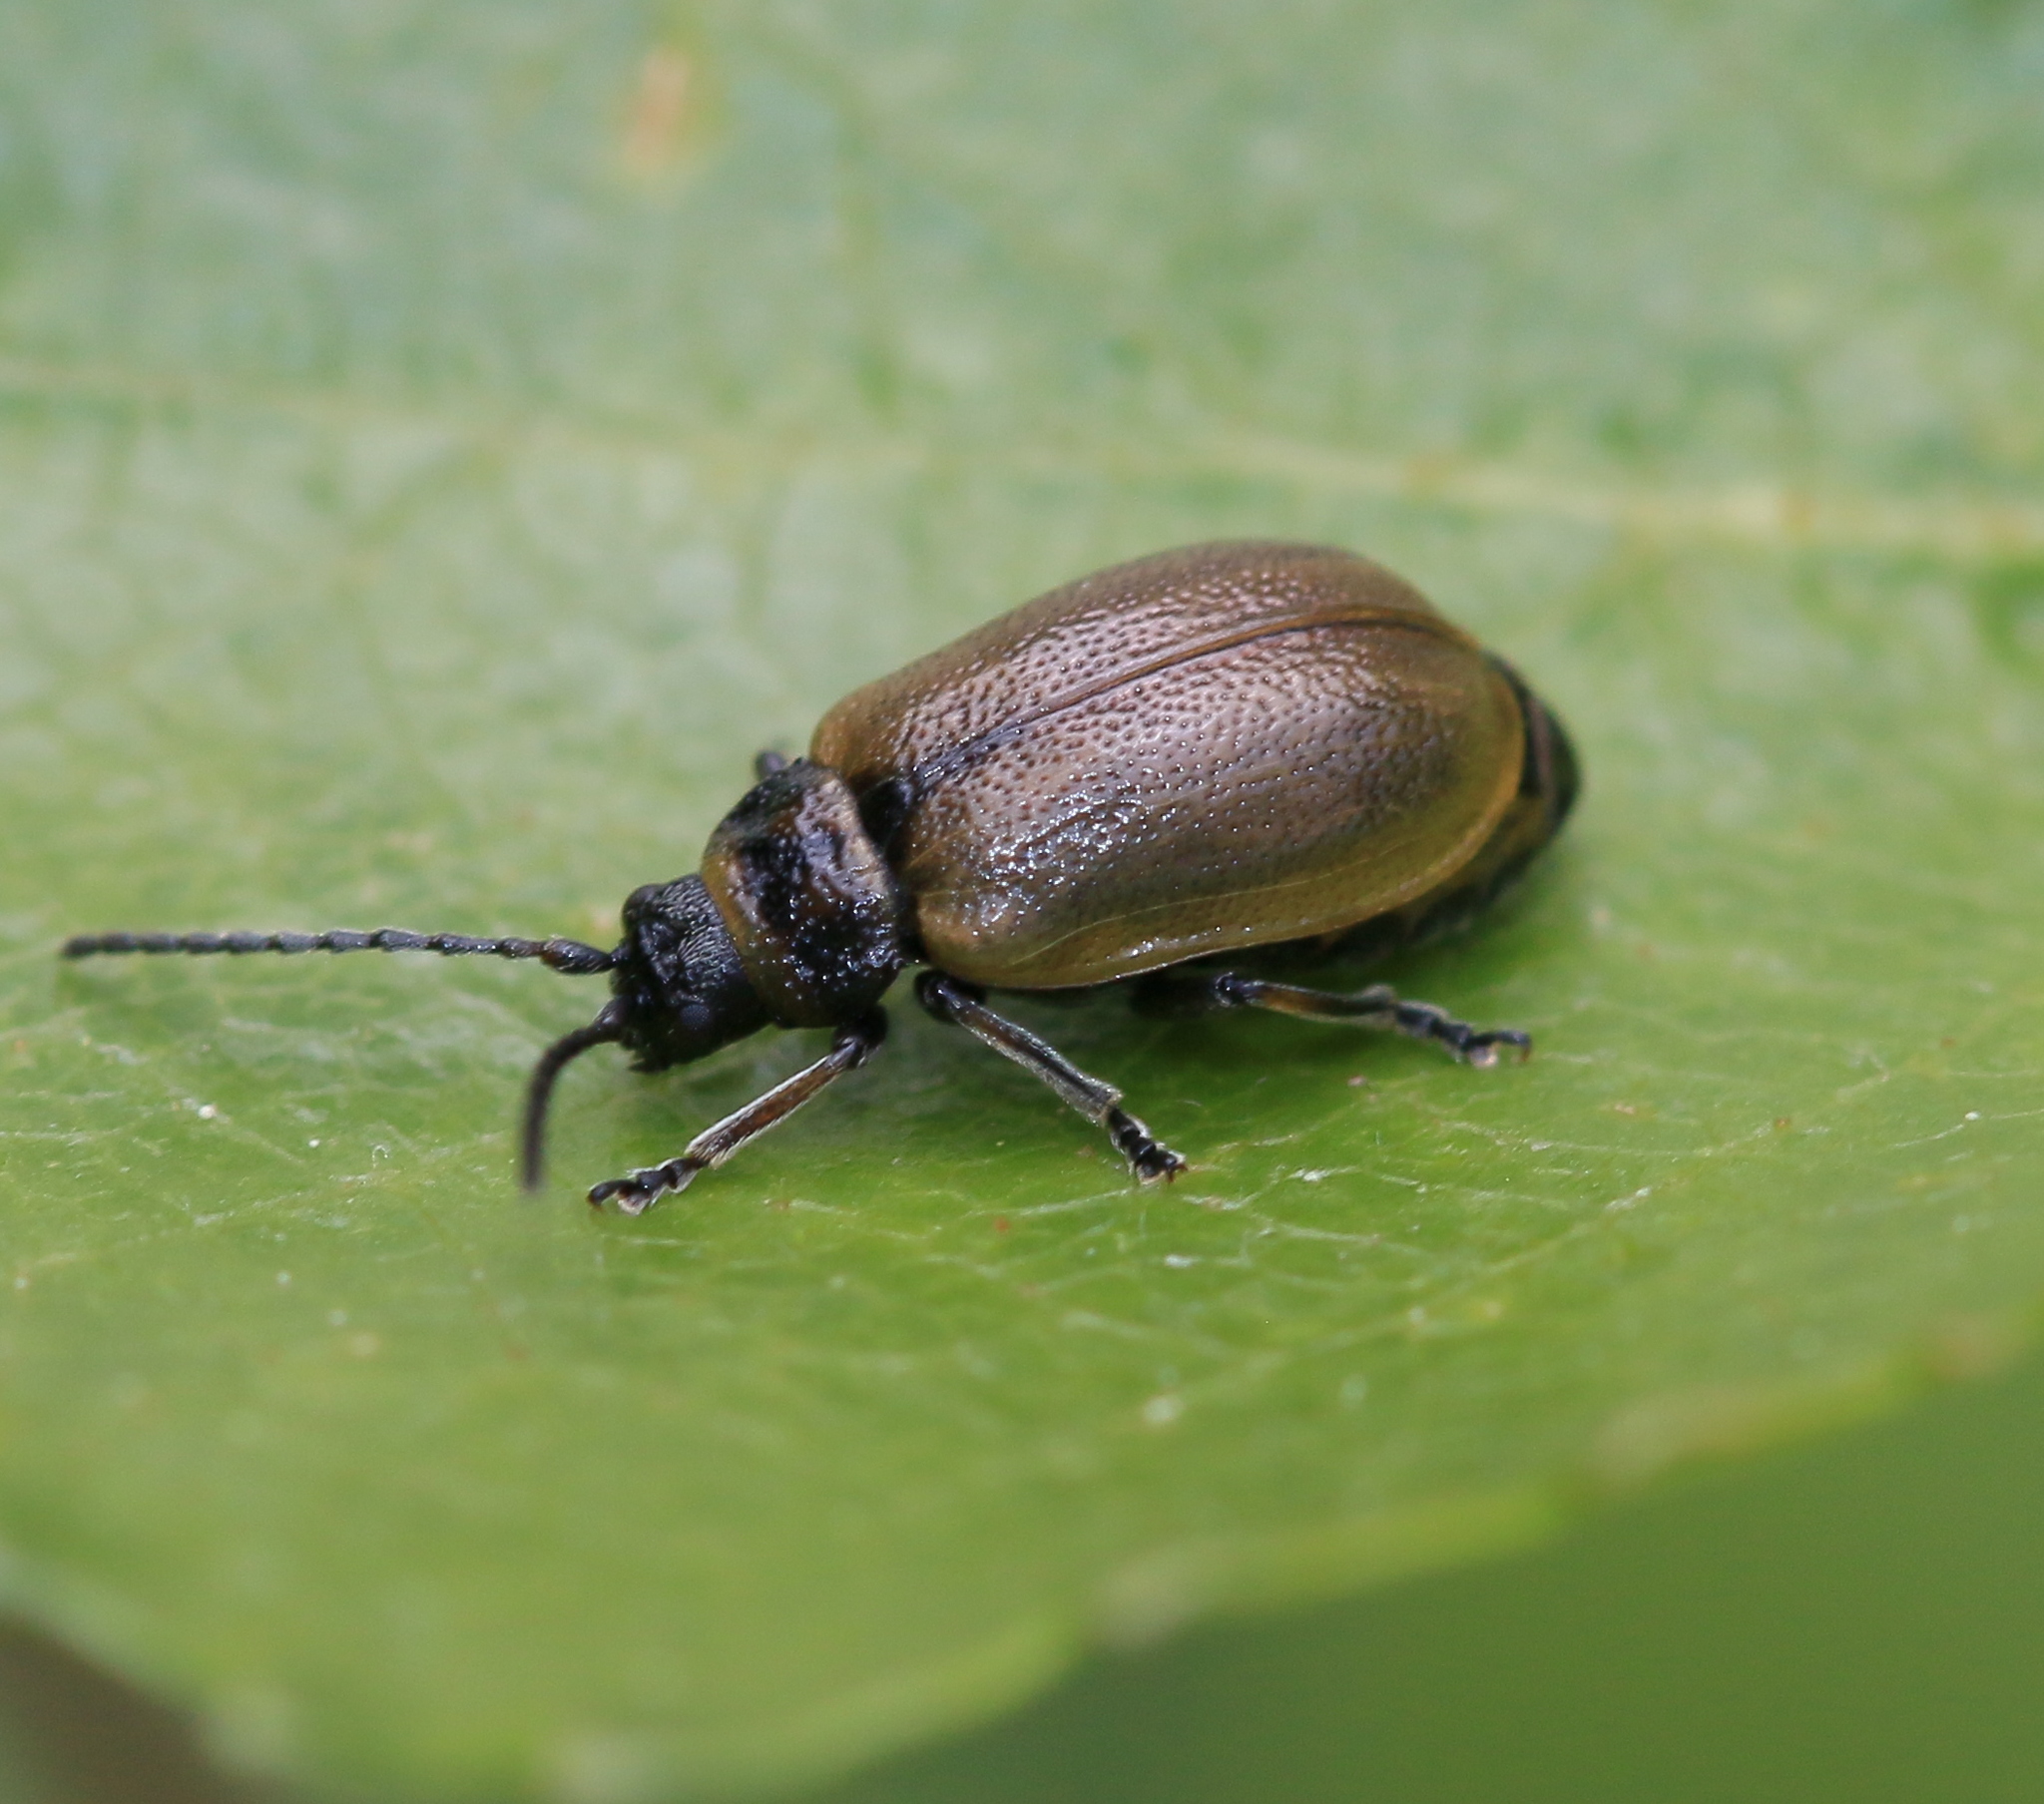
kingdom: Animalia
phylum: Arthropoda
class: Insecta
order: Coleoptera
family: Chrysomelidae
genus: Lochmaea
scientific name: Lochmaea caprea
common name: Willow leaf beetle
